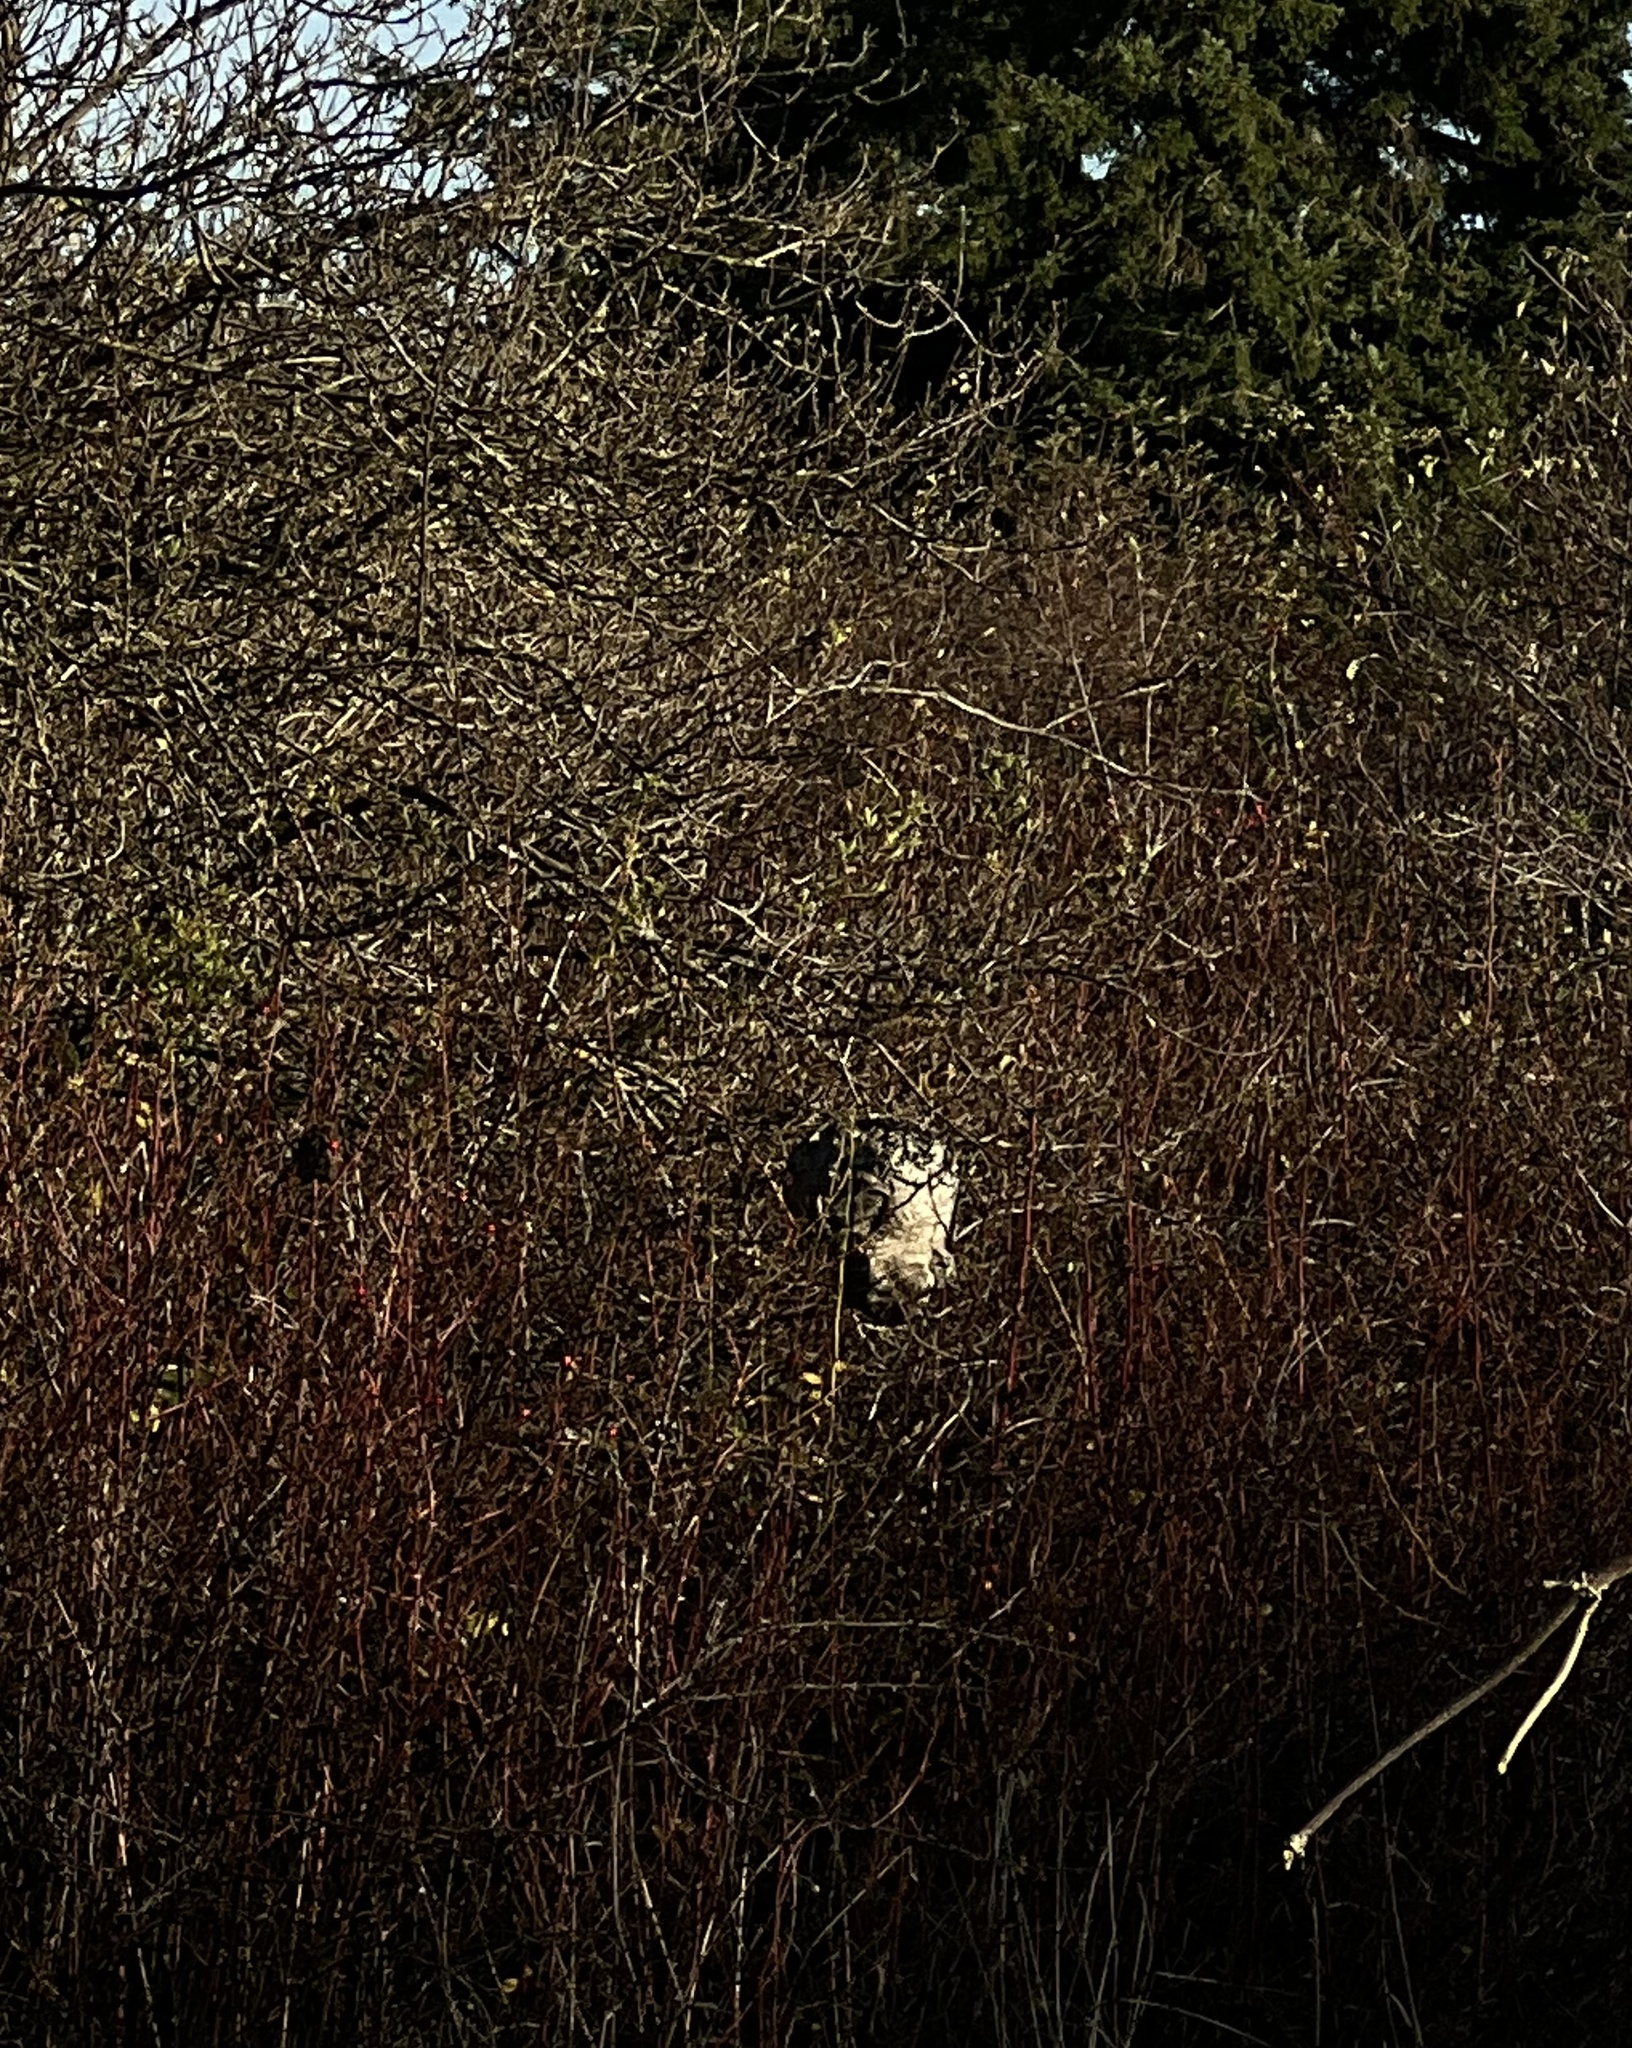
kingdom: Animalia
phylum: Arthropoda
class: Insecta
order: Hymenoptera
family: Vespidae
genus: Dolichovespula
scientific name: Dolichovespula
